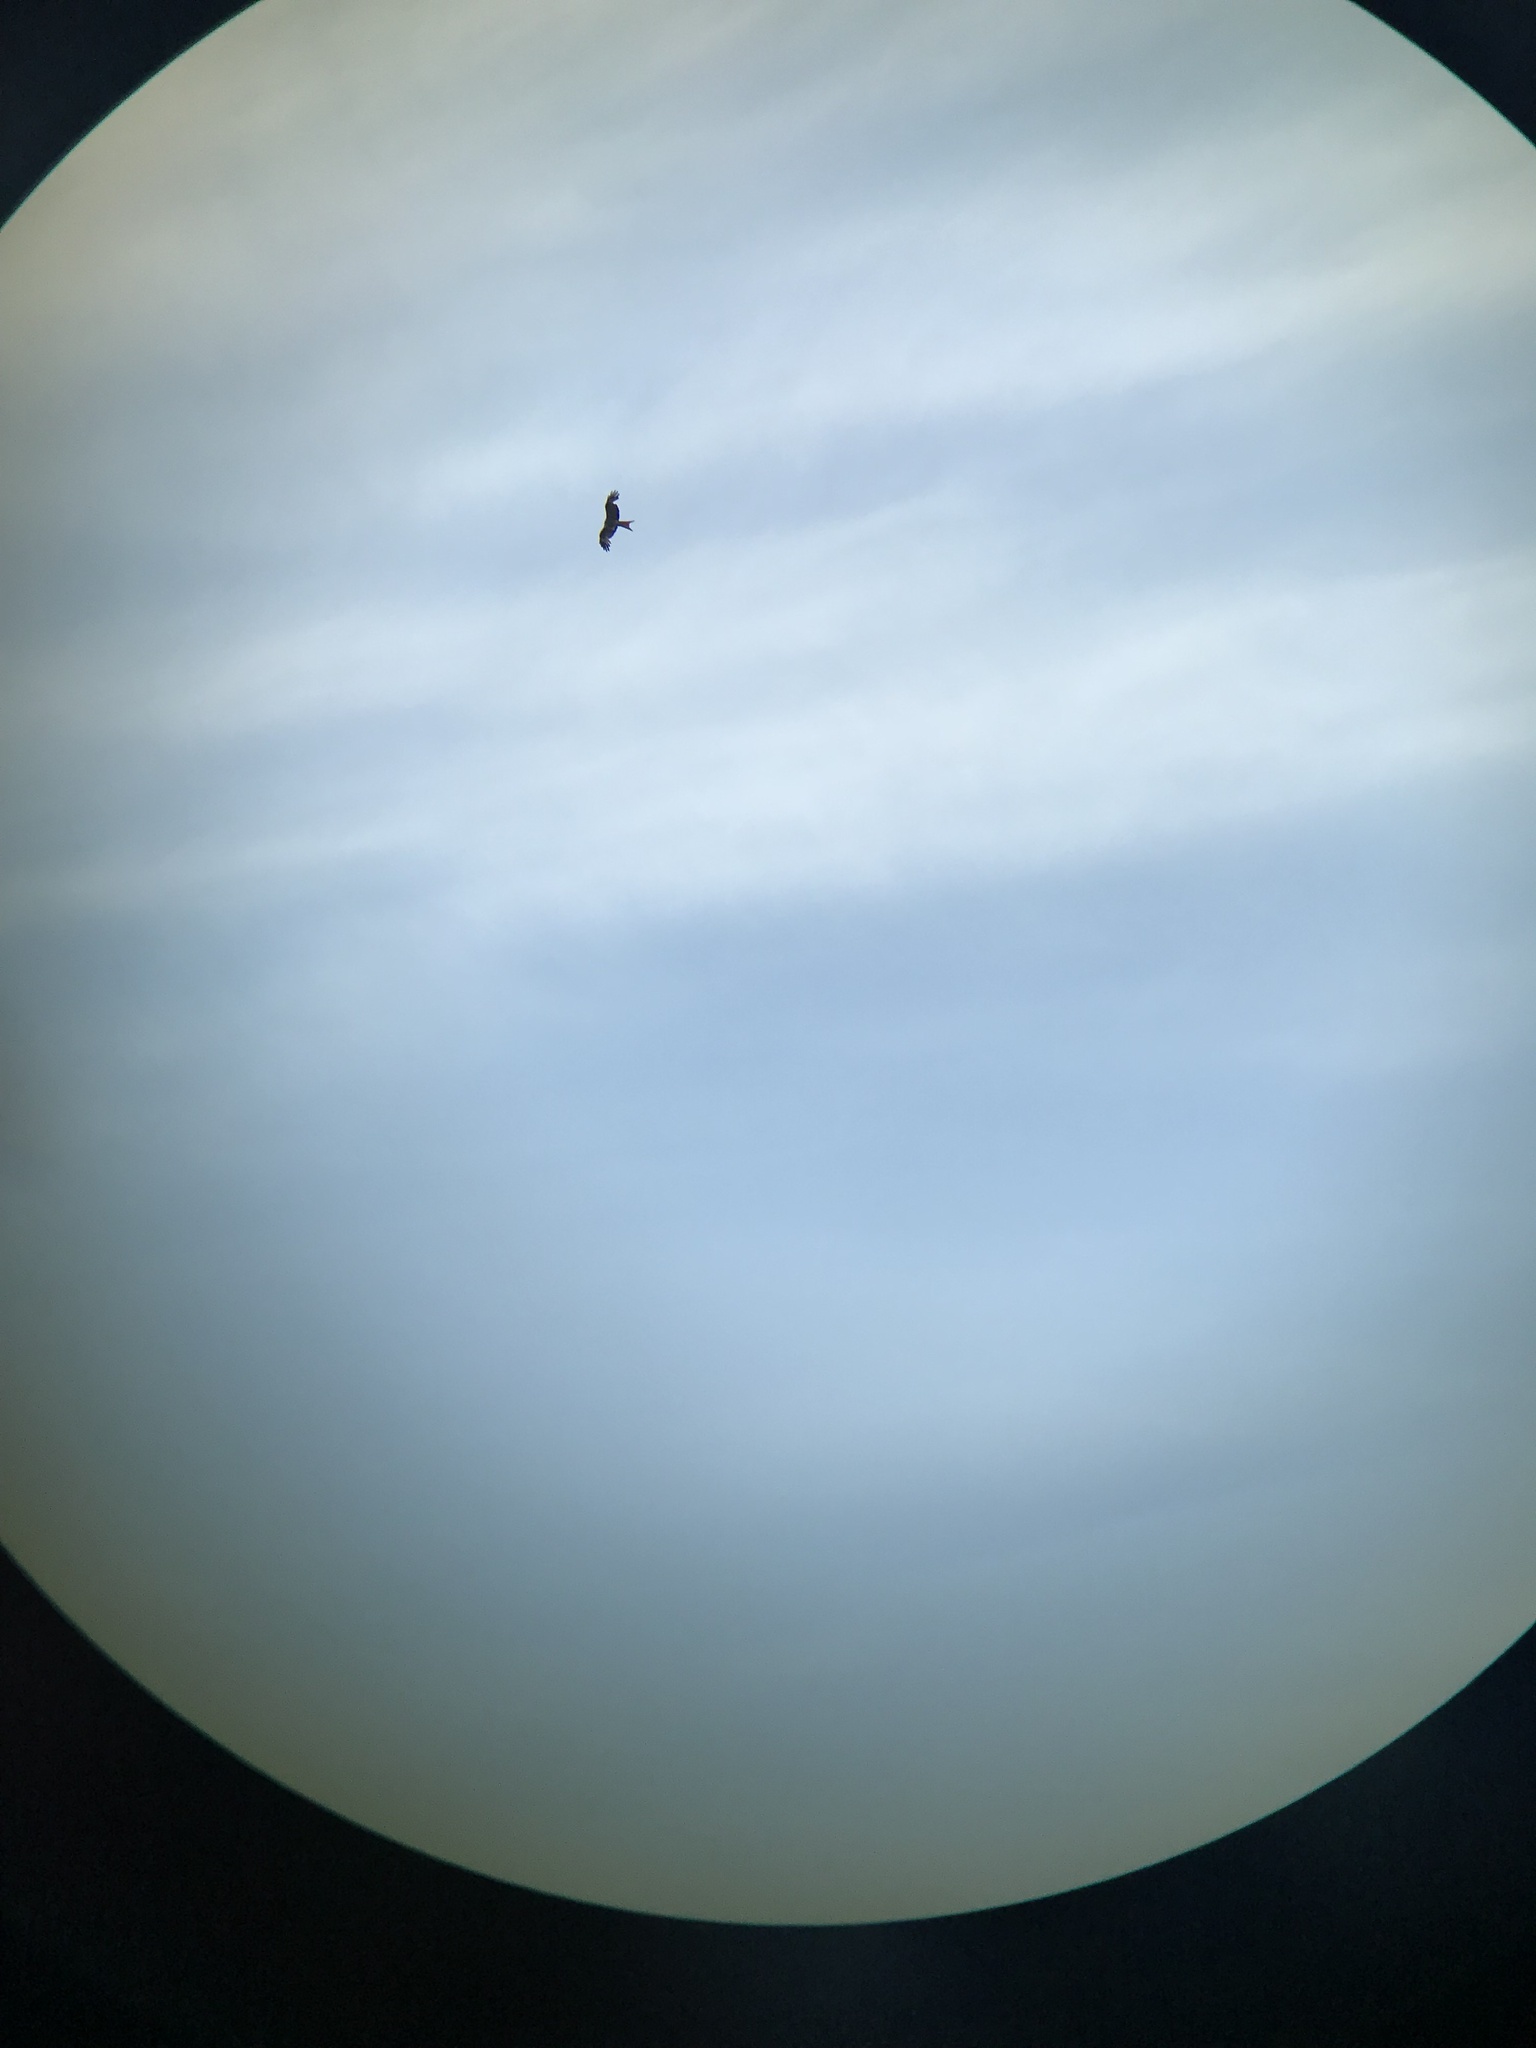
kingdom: Animalia
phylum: Chordata
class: Aves
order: Accipitriformes
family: Accipitridae
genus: Milvus
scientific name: Milvus milvus
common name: Red kite
